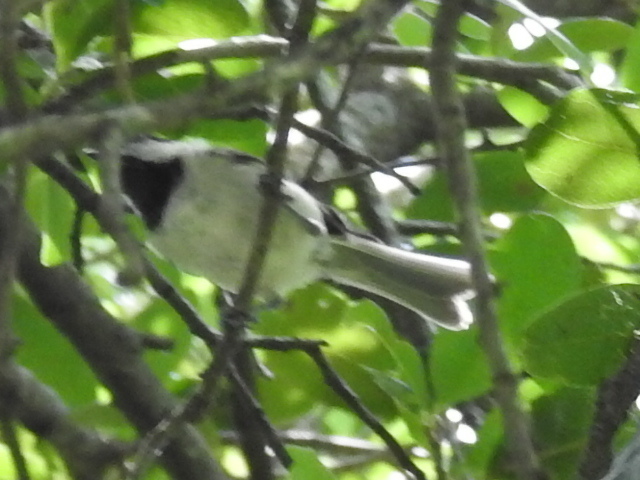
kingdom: Animalia
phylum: Chordata
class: Aves
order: Passeriformes
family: Paridae
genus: Poecile
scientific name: Poecile carolinensis
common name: Carolina chickadee
